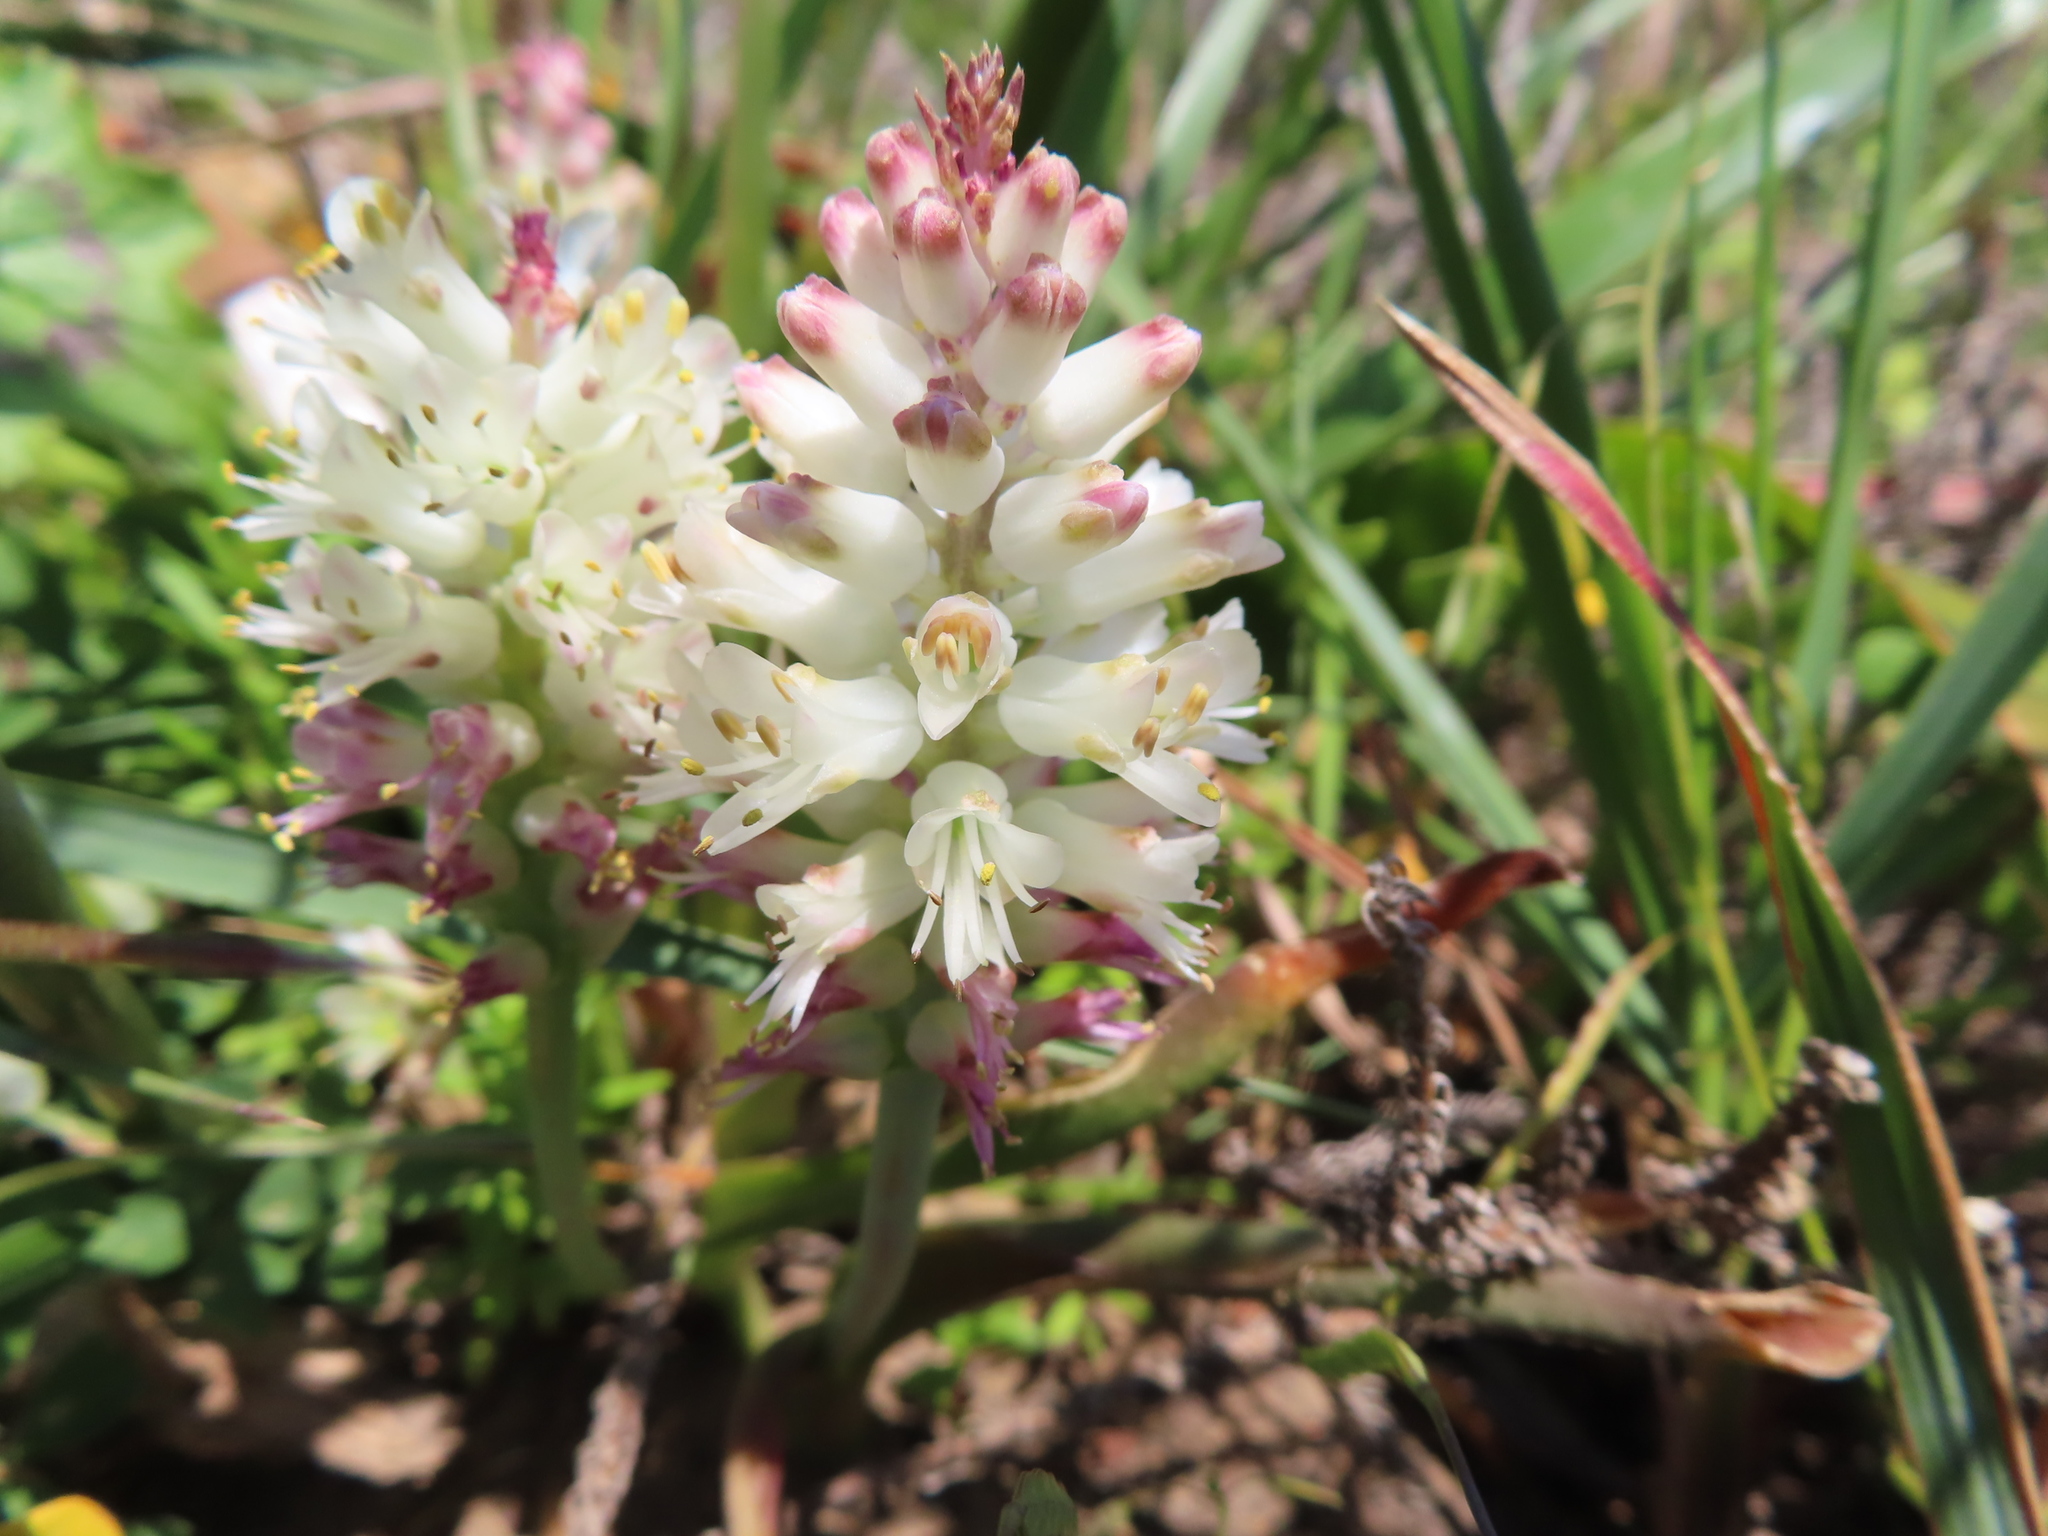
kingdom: Plantae
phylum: Tracheophyta
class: Liliopsida
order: Asparagales
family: Asparagaceae
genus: Lachenalia
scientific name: Lachenalia liliiflora
